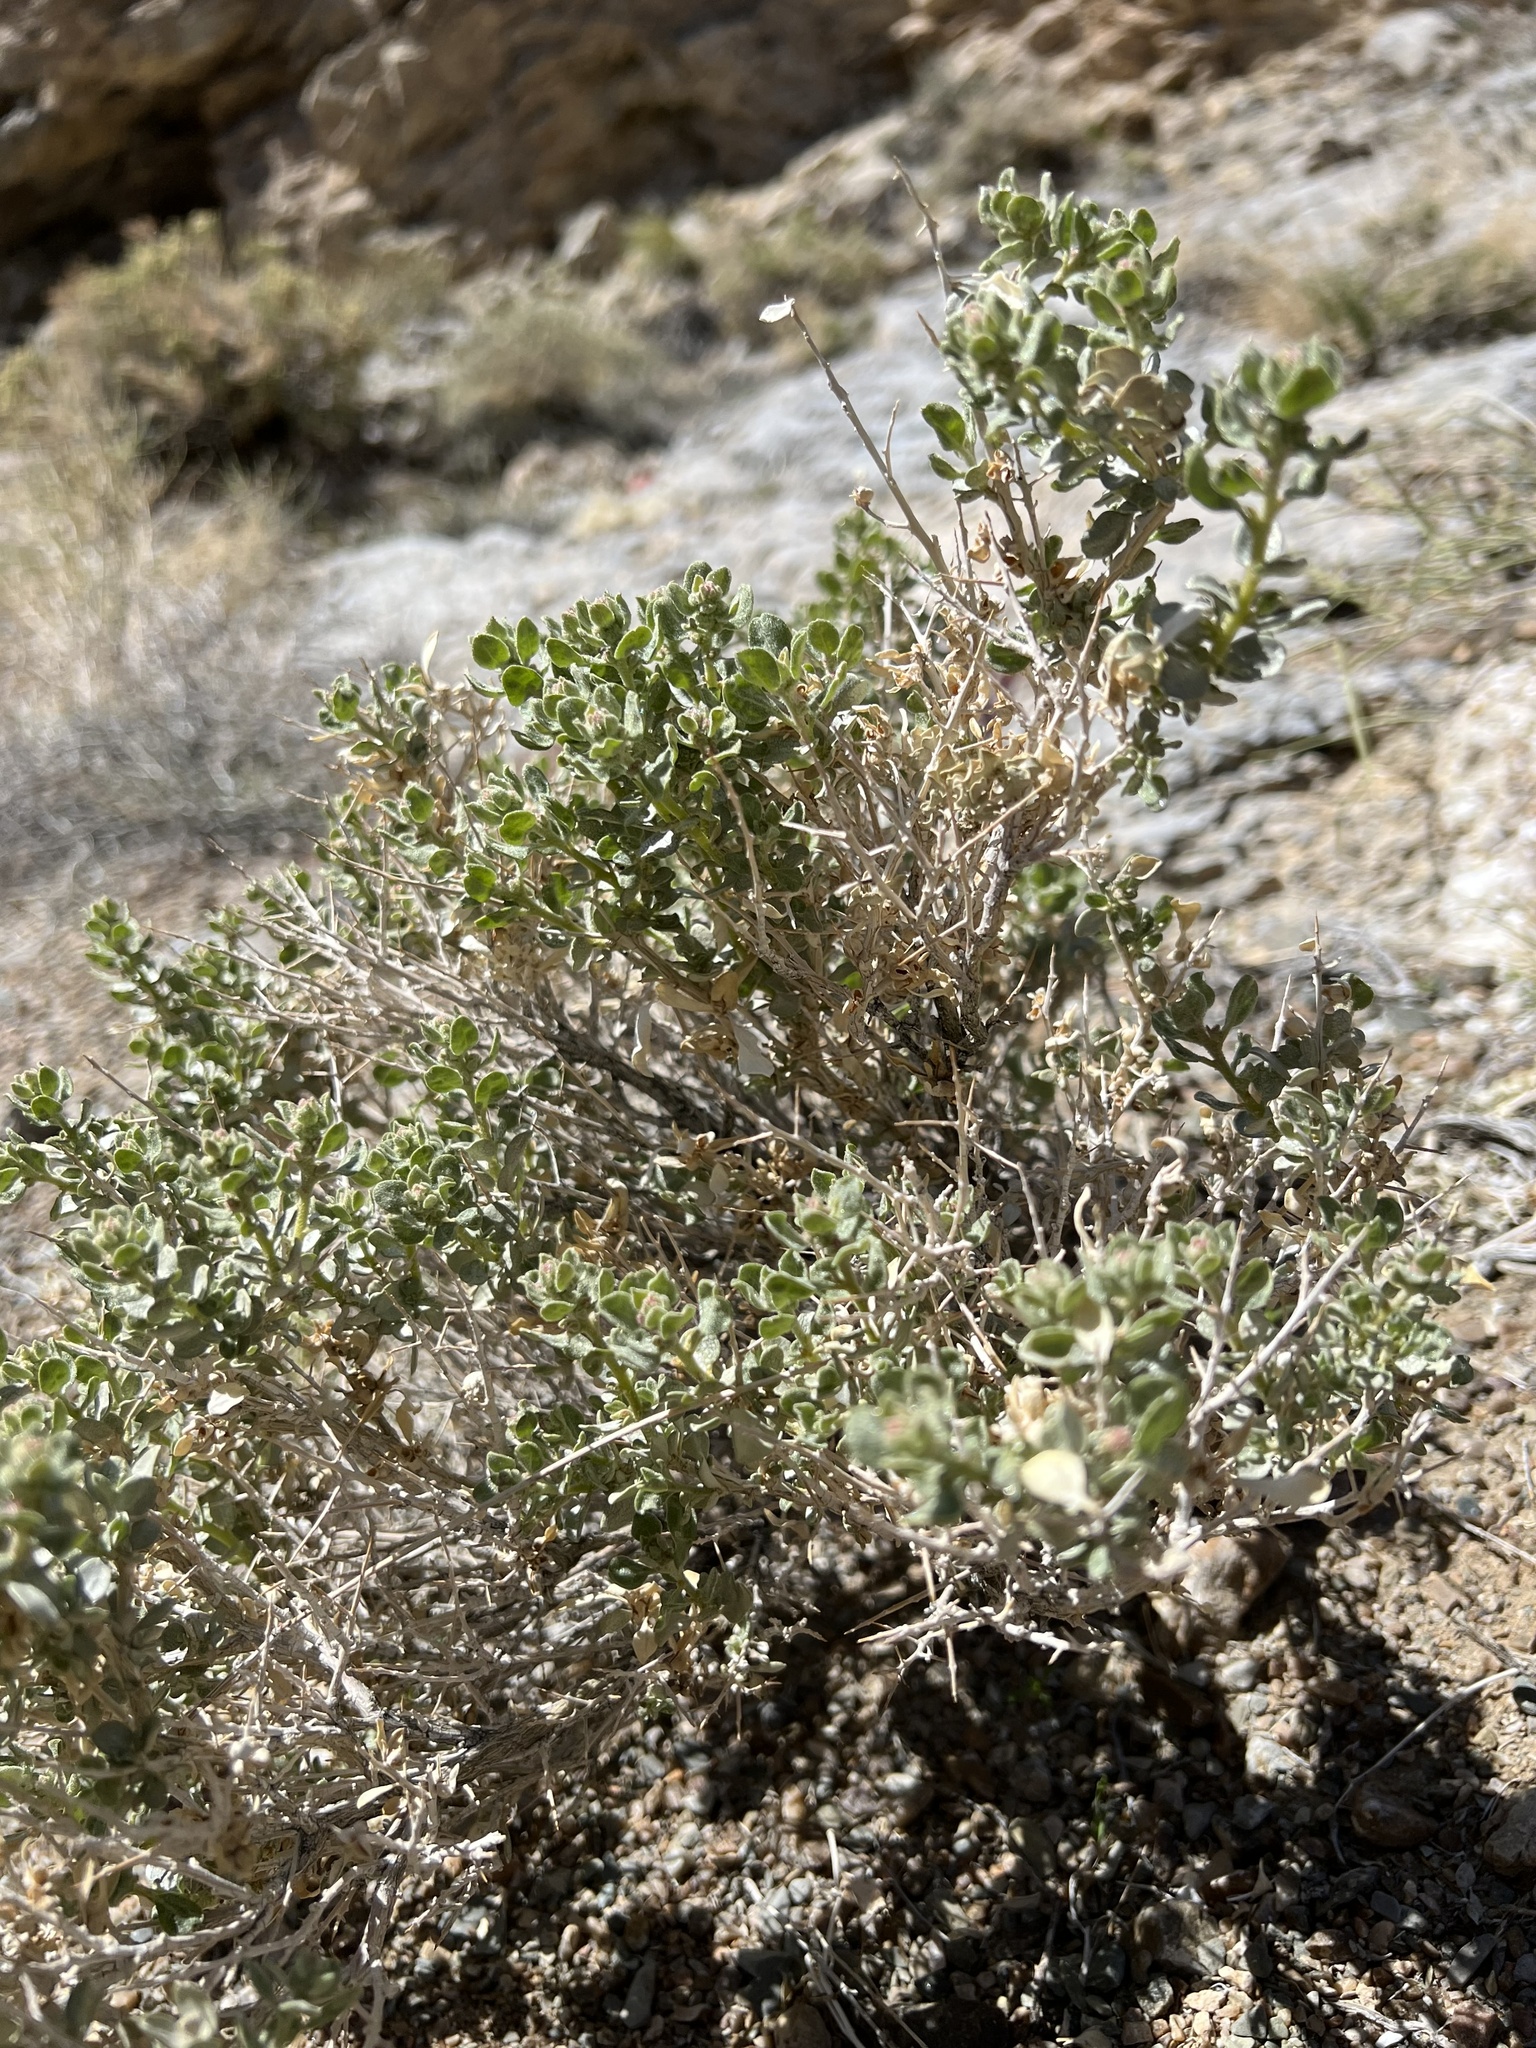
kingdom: Plantae
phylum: Tracheophyta
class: Magnoliopsida
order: Caryophyllales
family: Amaranthaceae
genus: Atriplex
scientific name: Atriplex confertifolia
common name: Shadscale
